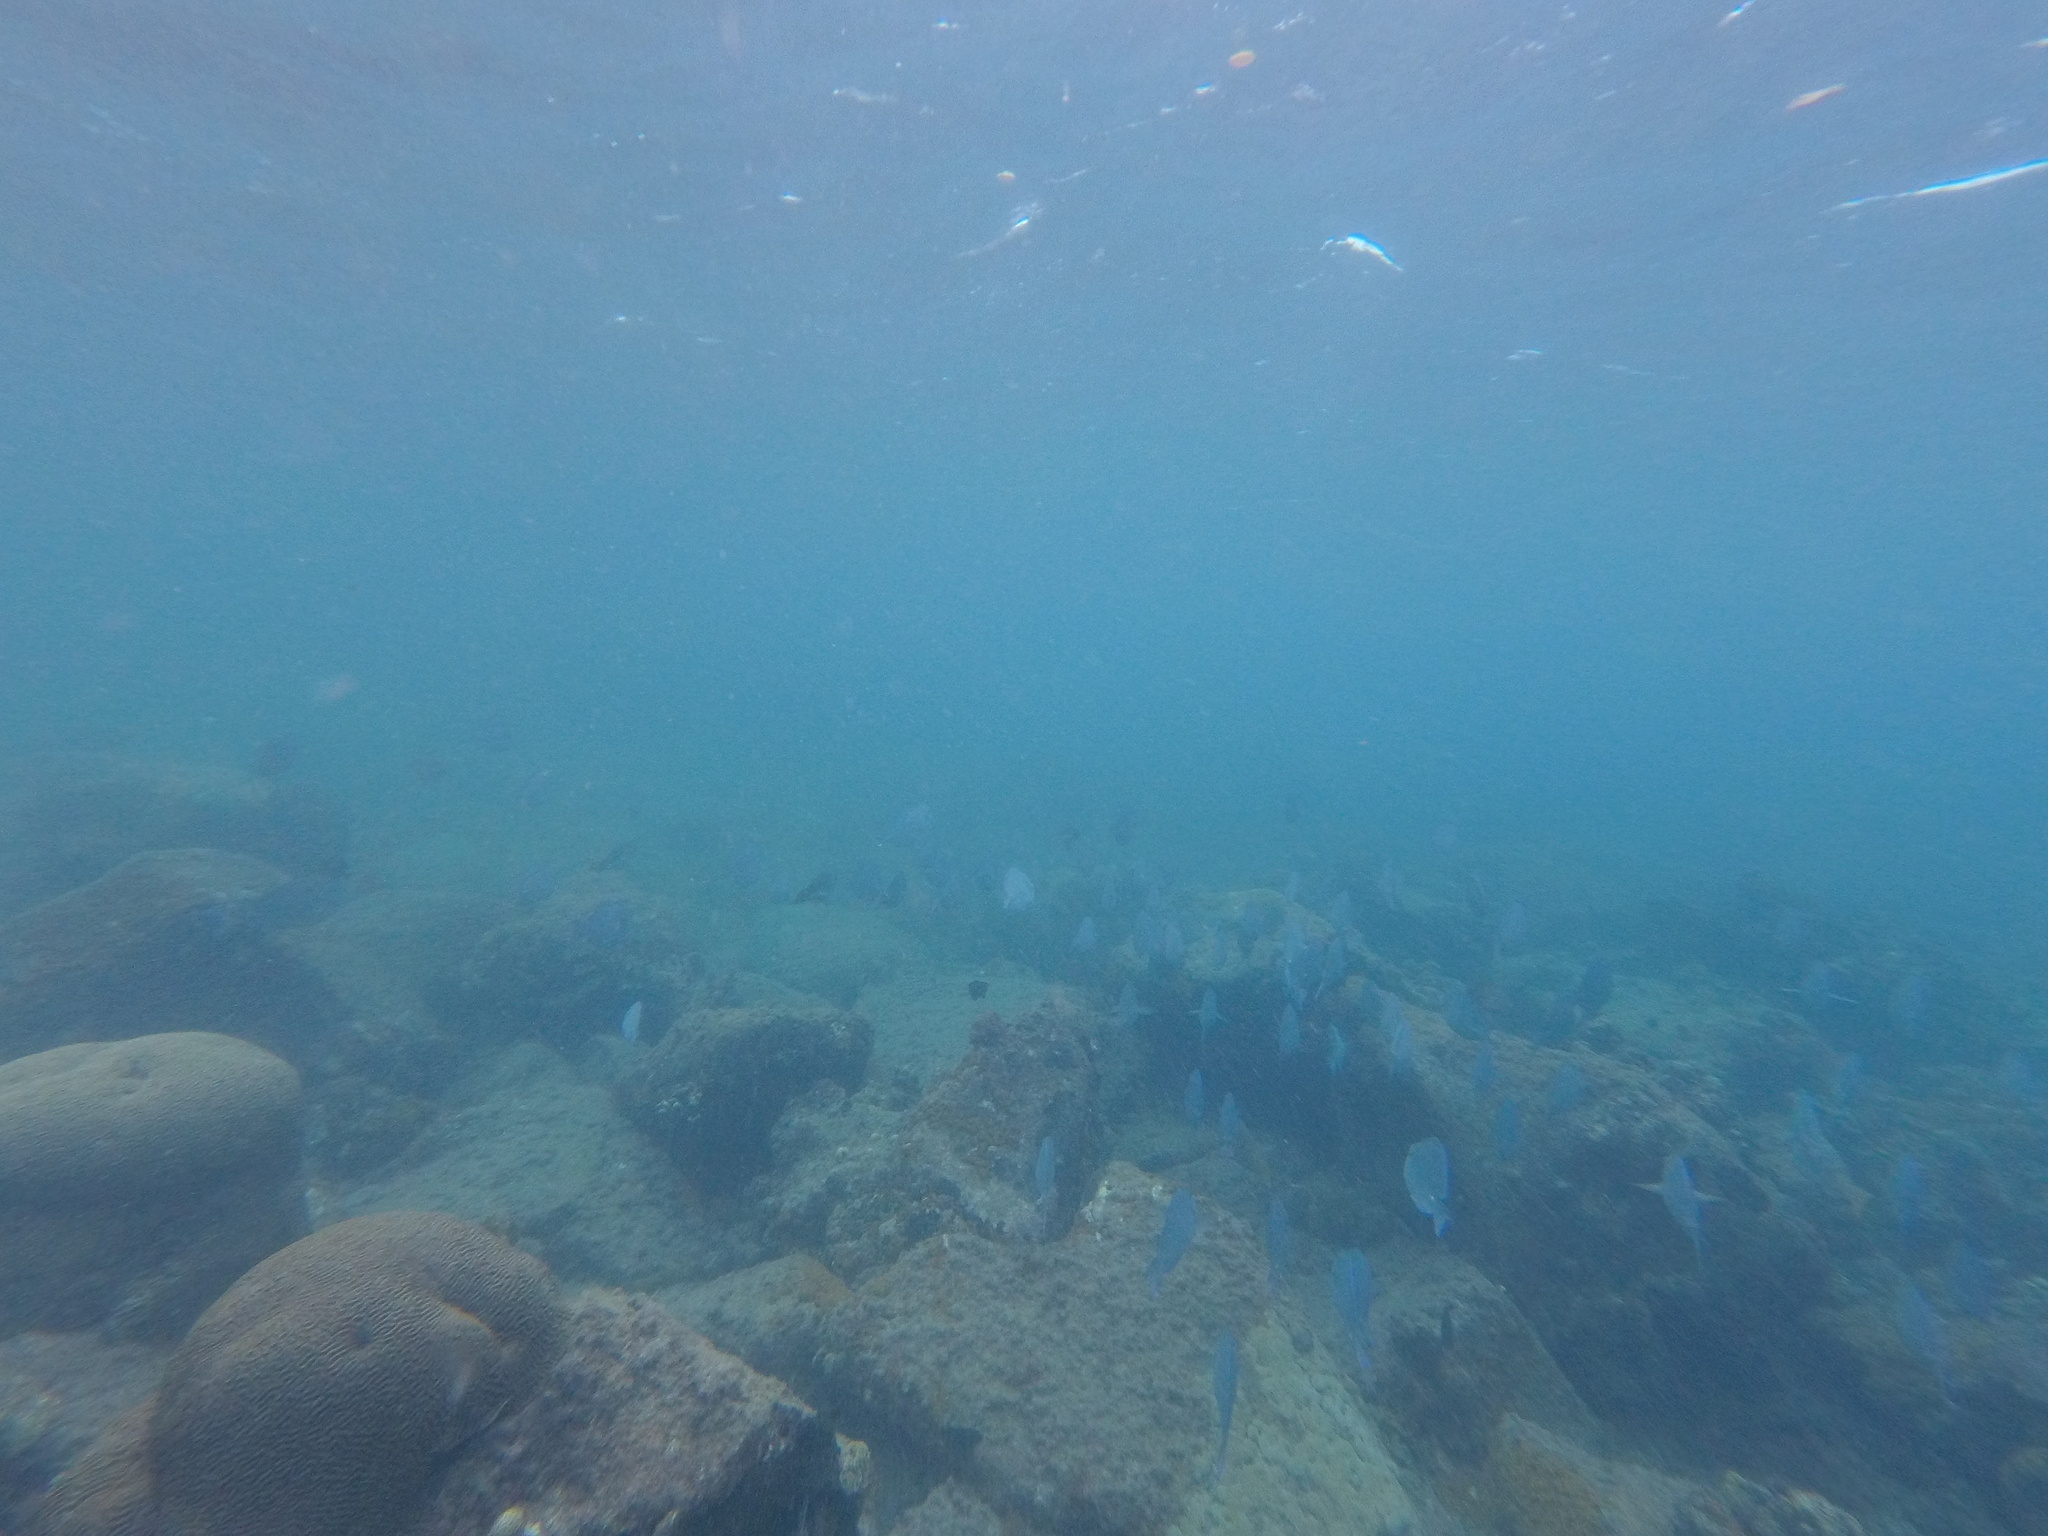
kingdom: Animalia
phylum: Chordata
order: Perciformes
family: Acanthuridae
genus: Acanthurus
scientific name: Acanthurus coeruleus
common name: Blue tang
